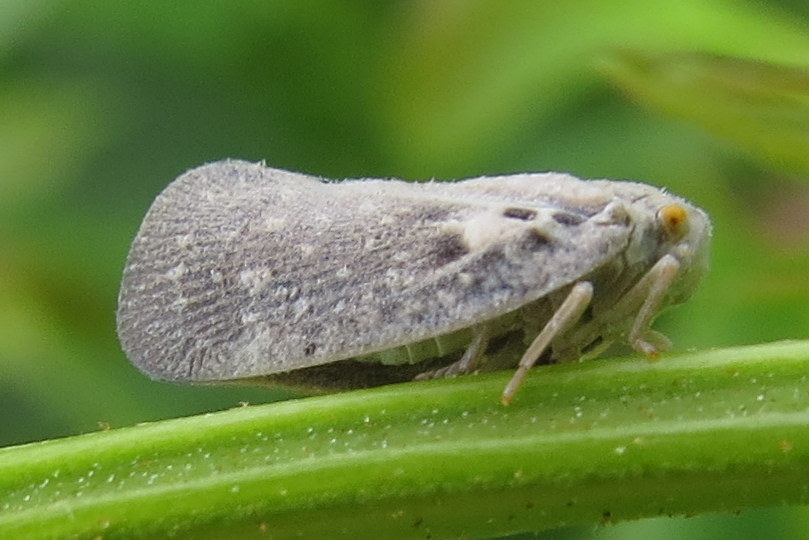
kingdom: Animalia
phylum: Arthropoda
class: Insecta
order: Hemiptera
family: Flatidae
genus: Metcalfa
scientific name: Metcalfa pruinosa
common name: Citrus flatid planthopper
